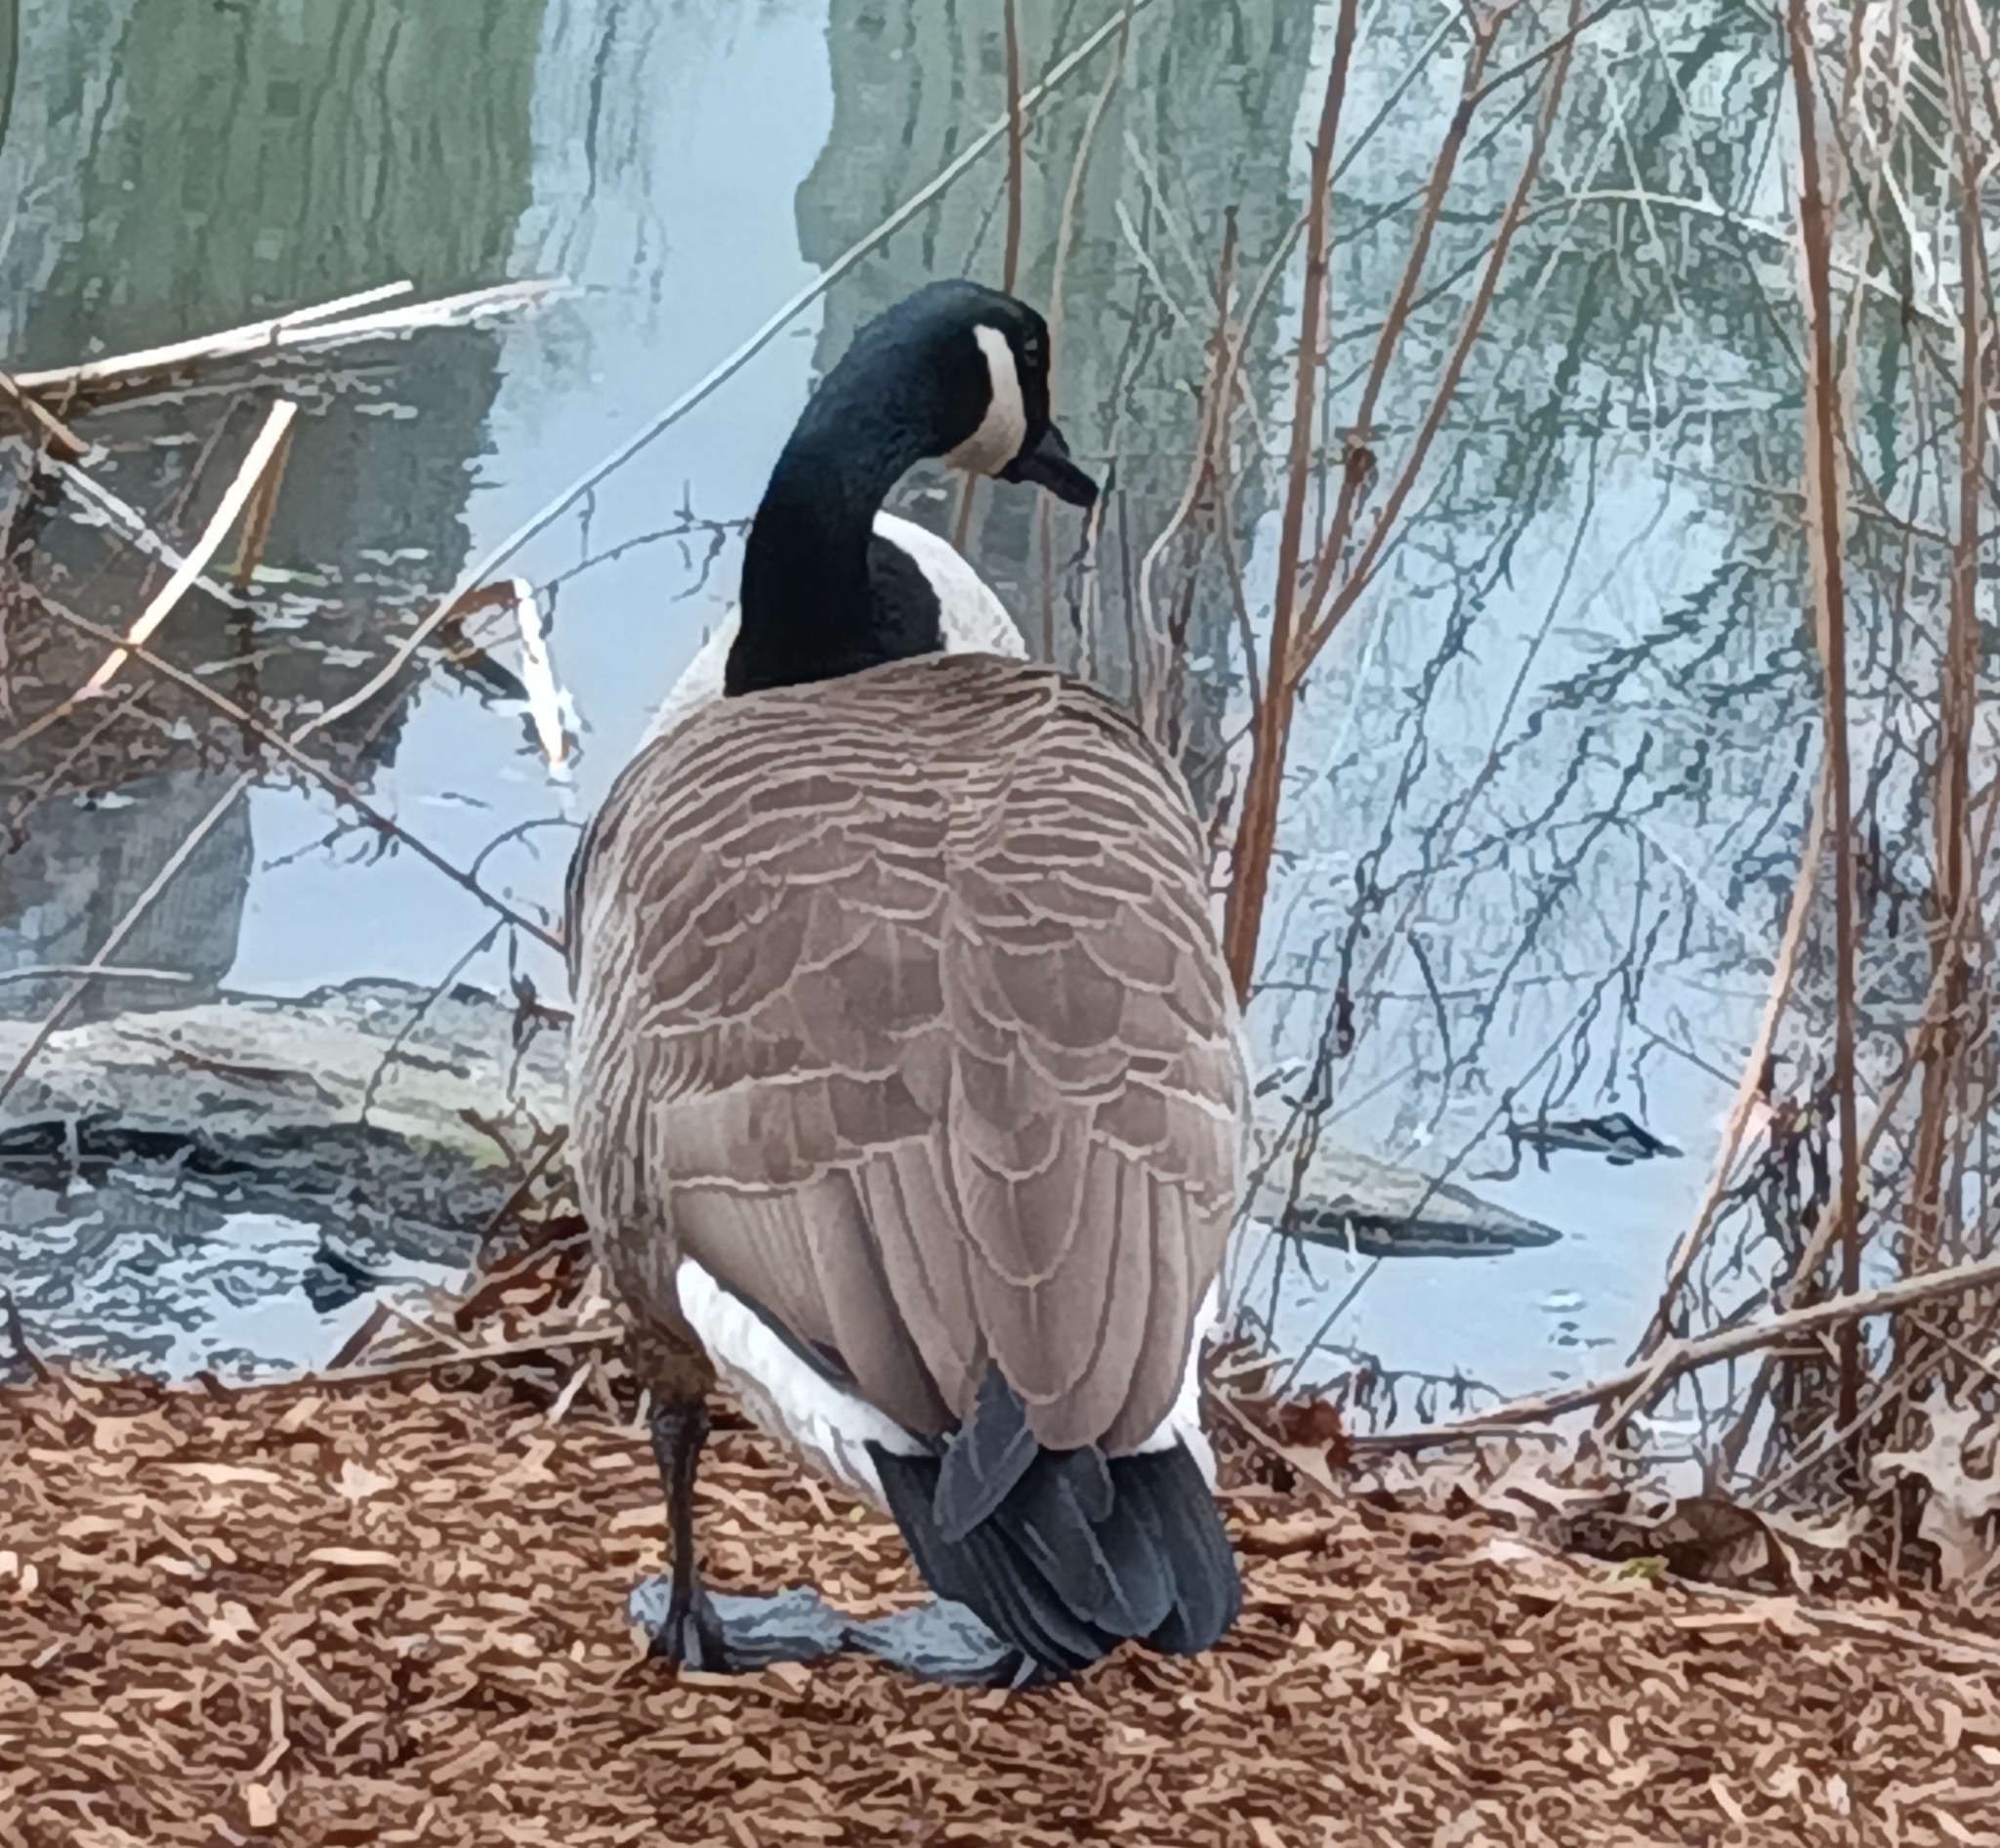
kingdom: Animalia
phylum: Chordata
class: Aves
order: Anseriformes
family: Anatidae
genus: Branta
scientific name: Branta canadensis
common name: Canada goose
